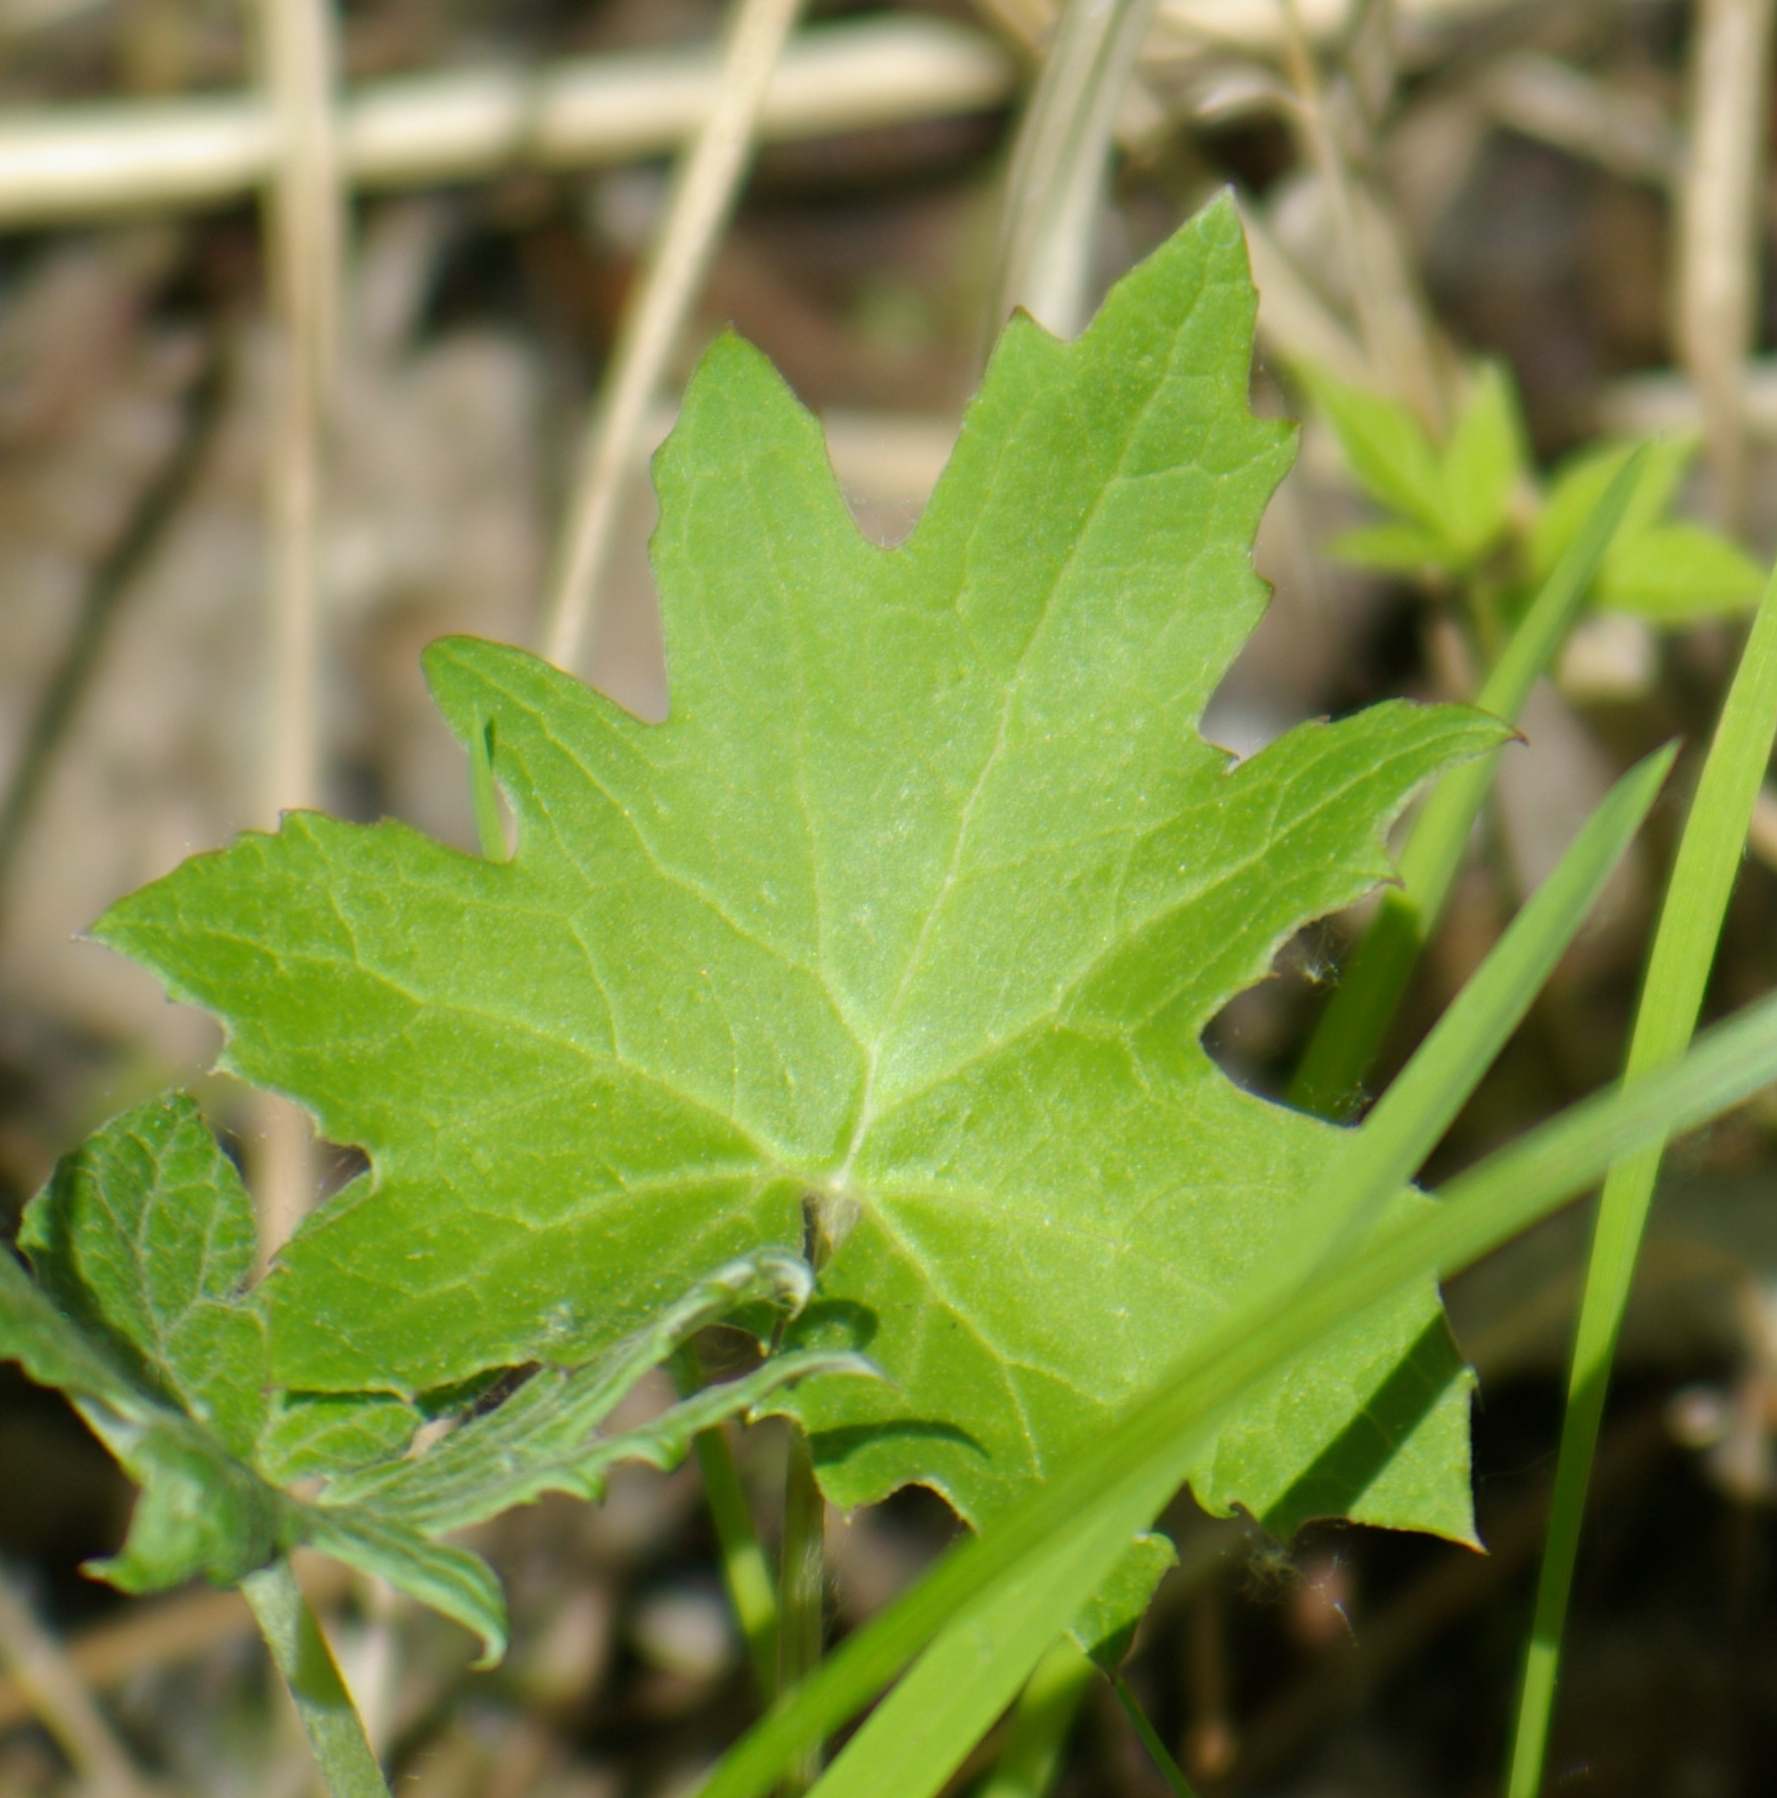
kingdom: Plantae
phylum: Tracheophyta
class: Magnoliopsida
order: Asterales
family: Asteraceae
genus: Petasites
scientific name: Petasites frigidus
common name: Arctic butterbur
